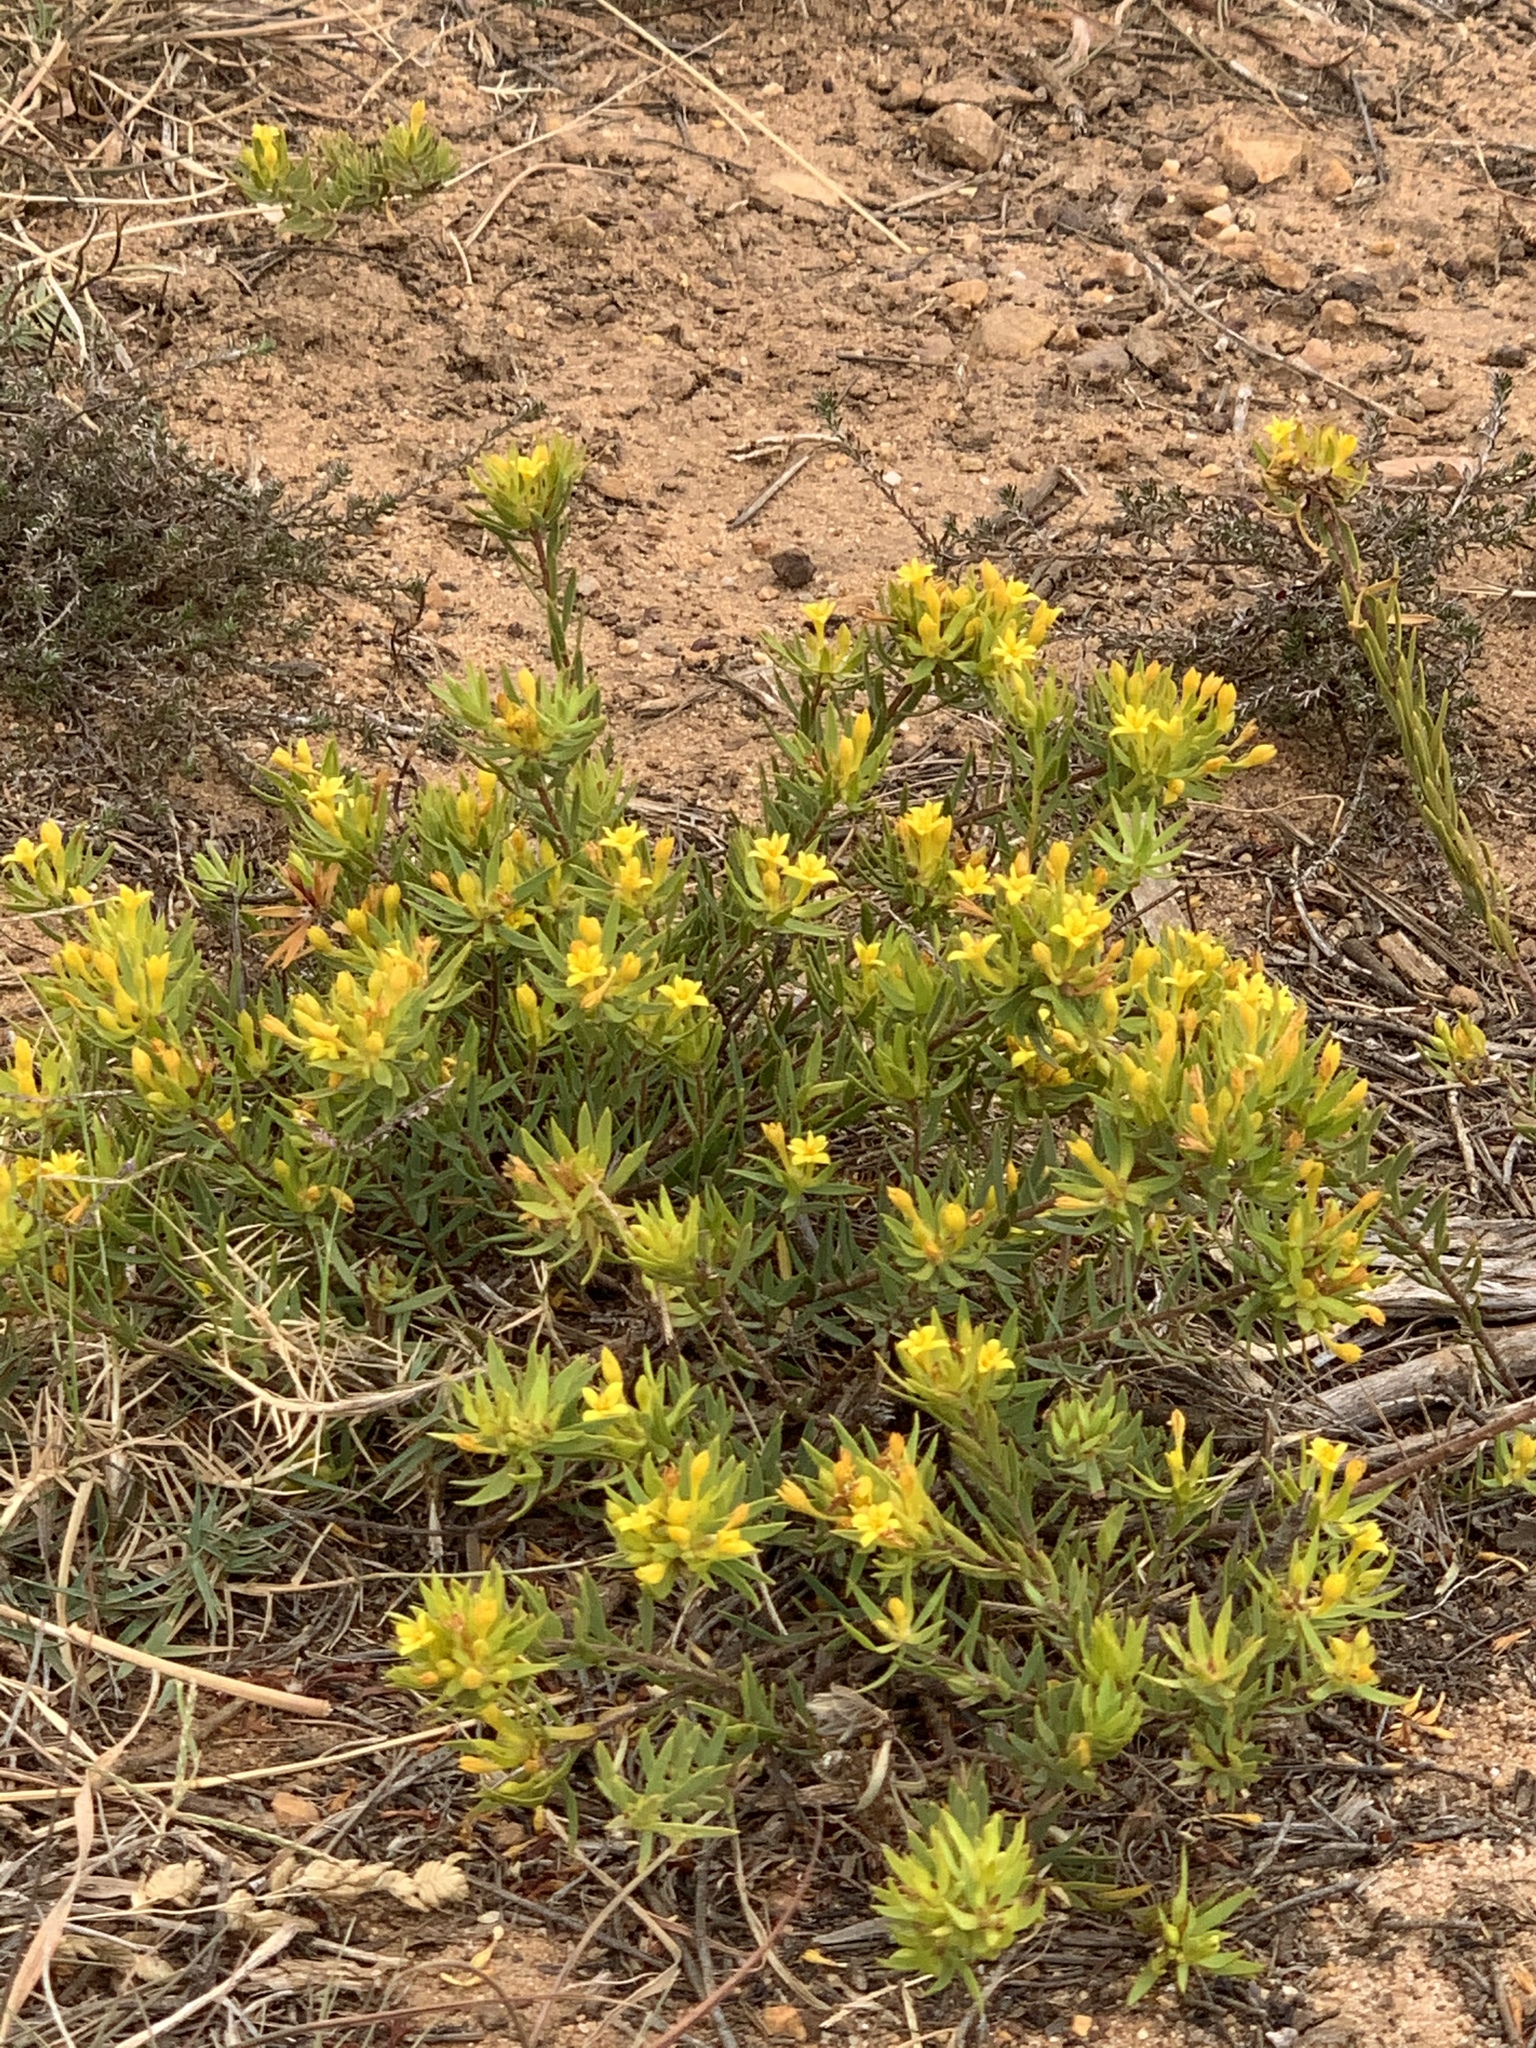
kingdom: Plantae
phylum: Tracheophyta
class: Magnoliopsida
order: Malvales
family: Thymelaeaceae
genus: Gnidia
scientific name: Gnidia juniperifolia
